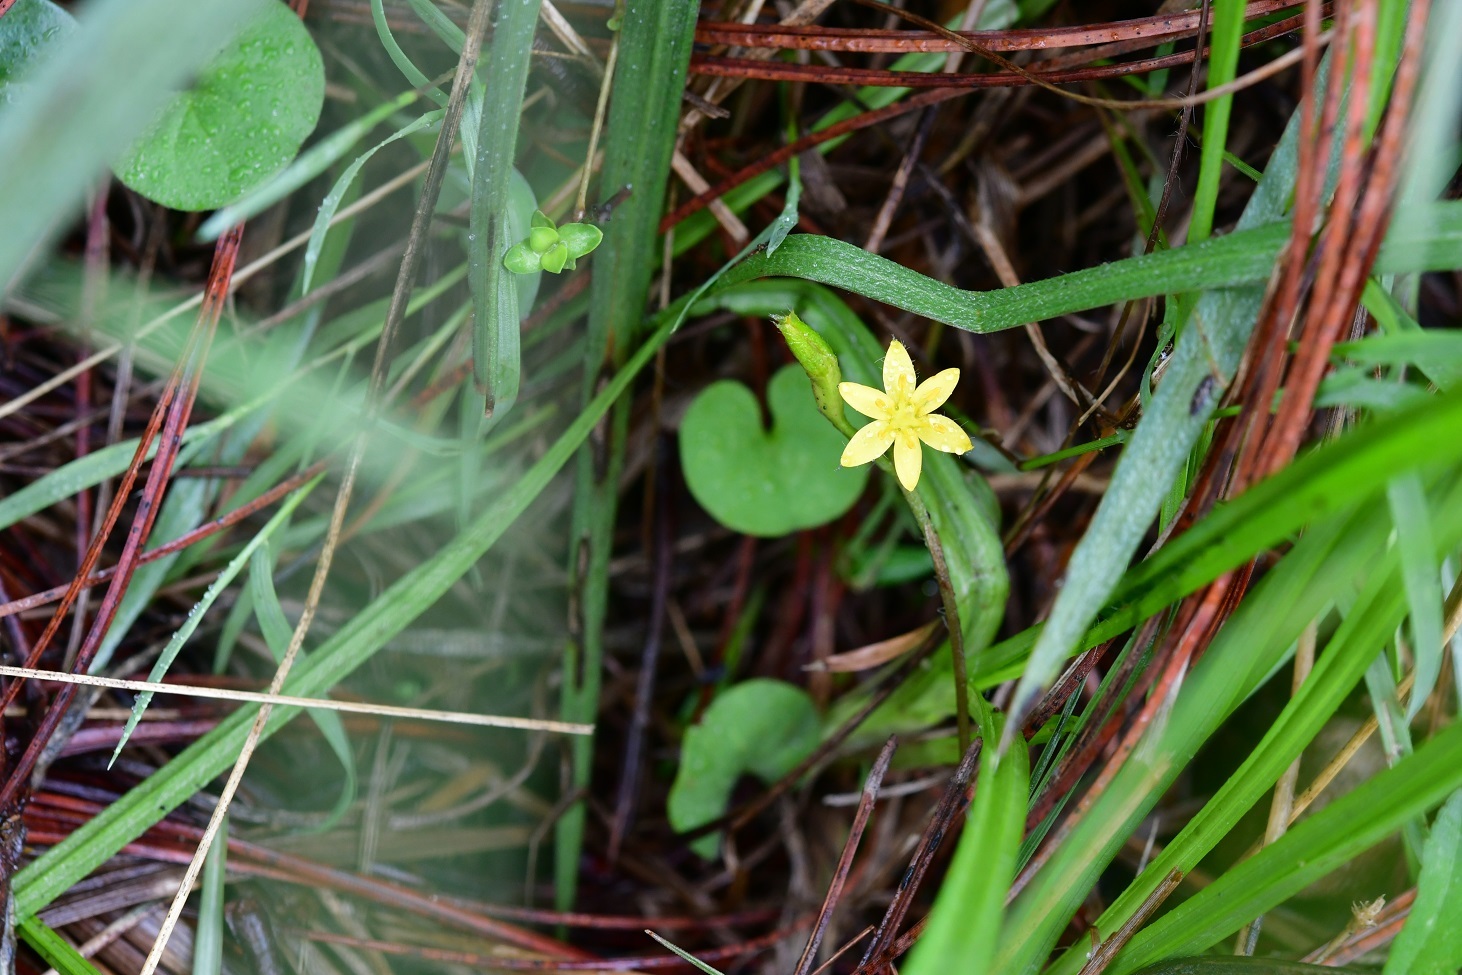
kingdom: Plantae
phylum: Tracheophyta
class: Liliopsida
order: Asparagales
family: Hypoxidaceae
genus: Hypoxis
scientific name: Hypoxis decumbens
